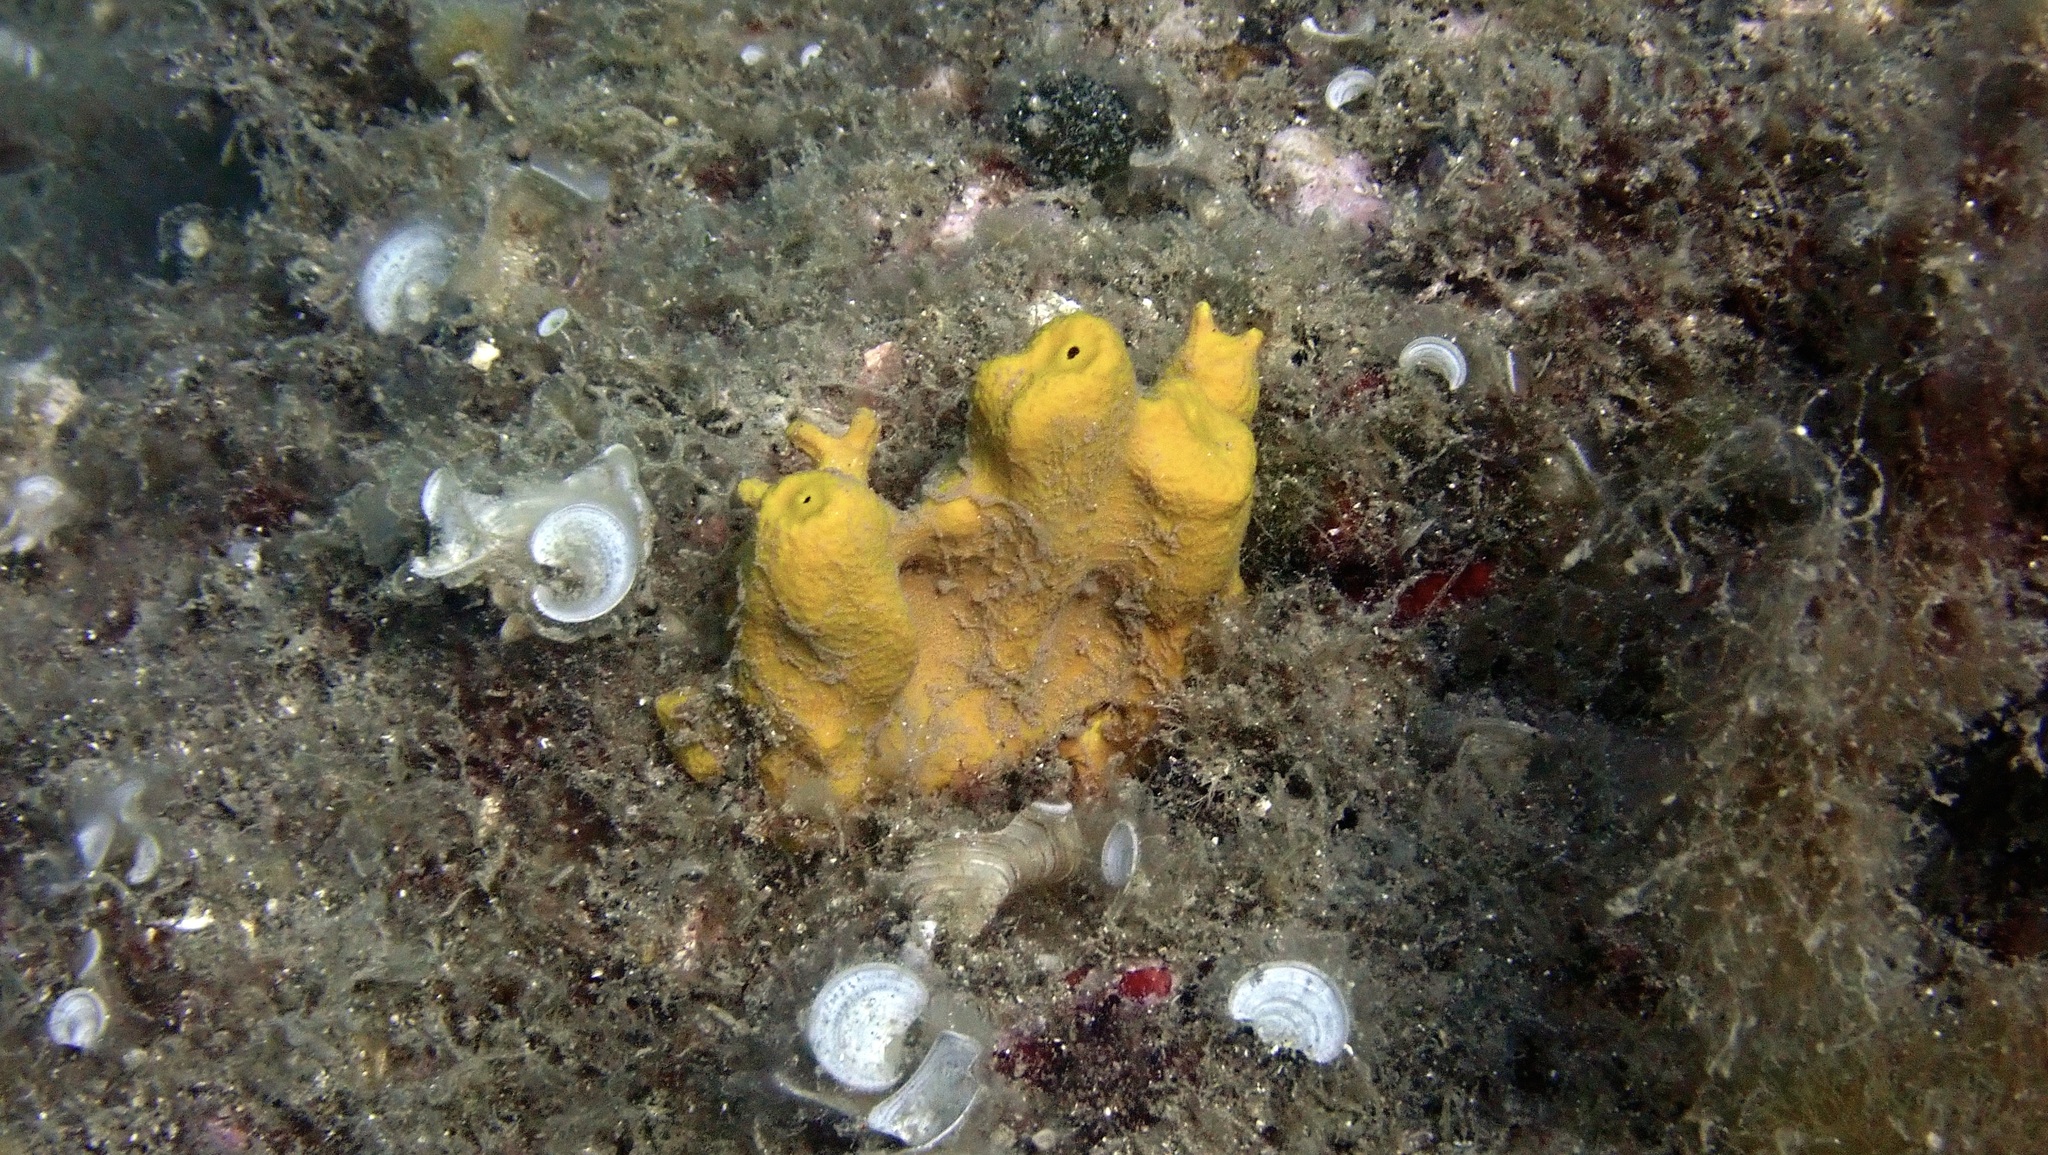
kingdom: Animalia
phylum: Porifera
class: Demospongiae
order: Verongiida
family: Aplysinidae
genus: Aplysina
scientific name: Aplysina aerophoba
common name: Aureate sponge
